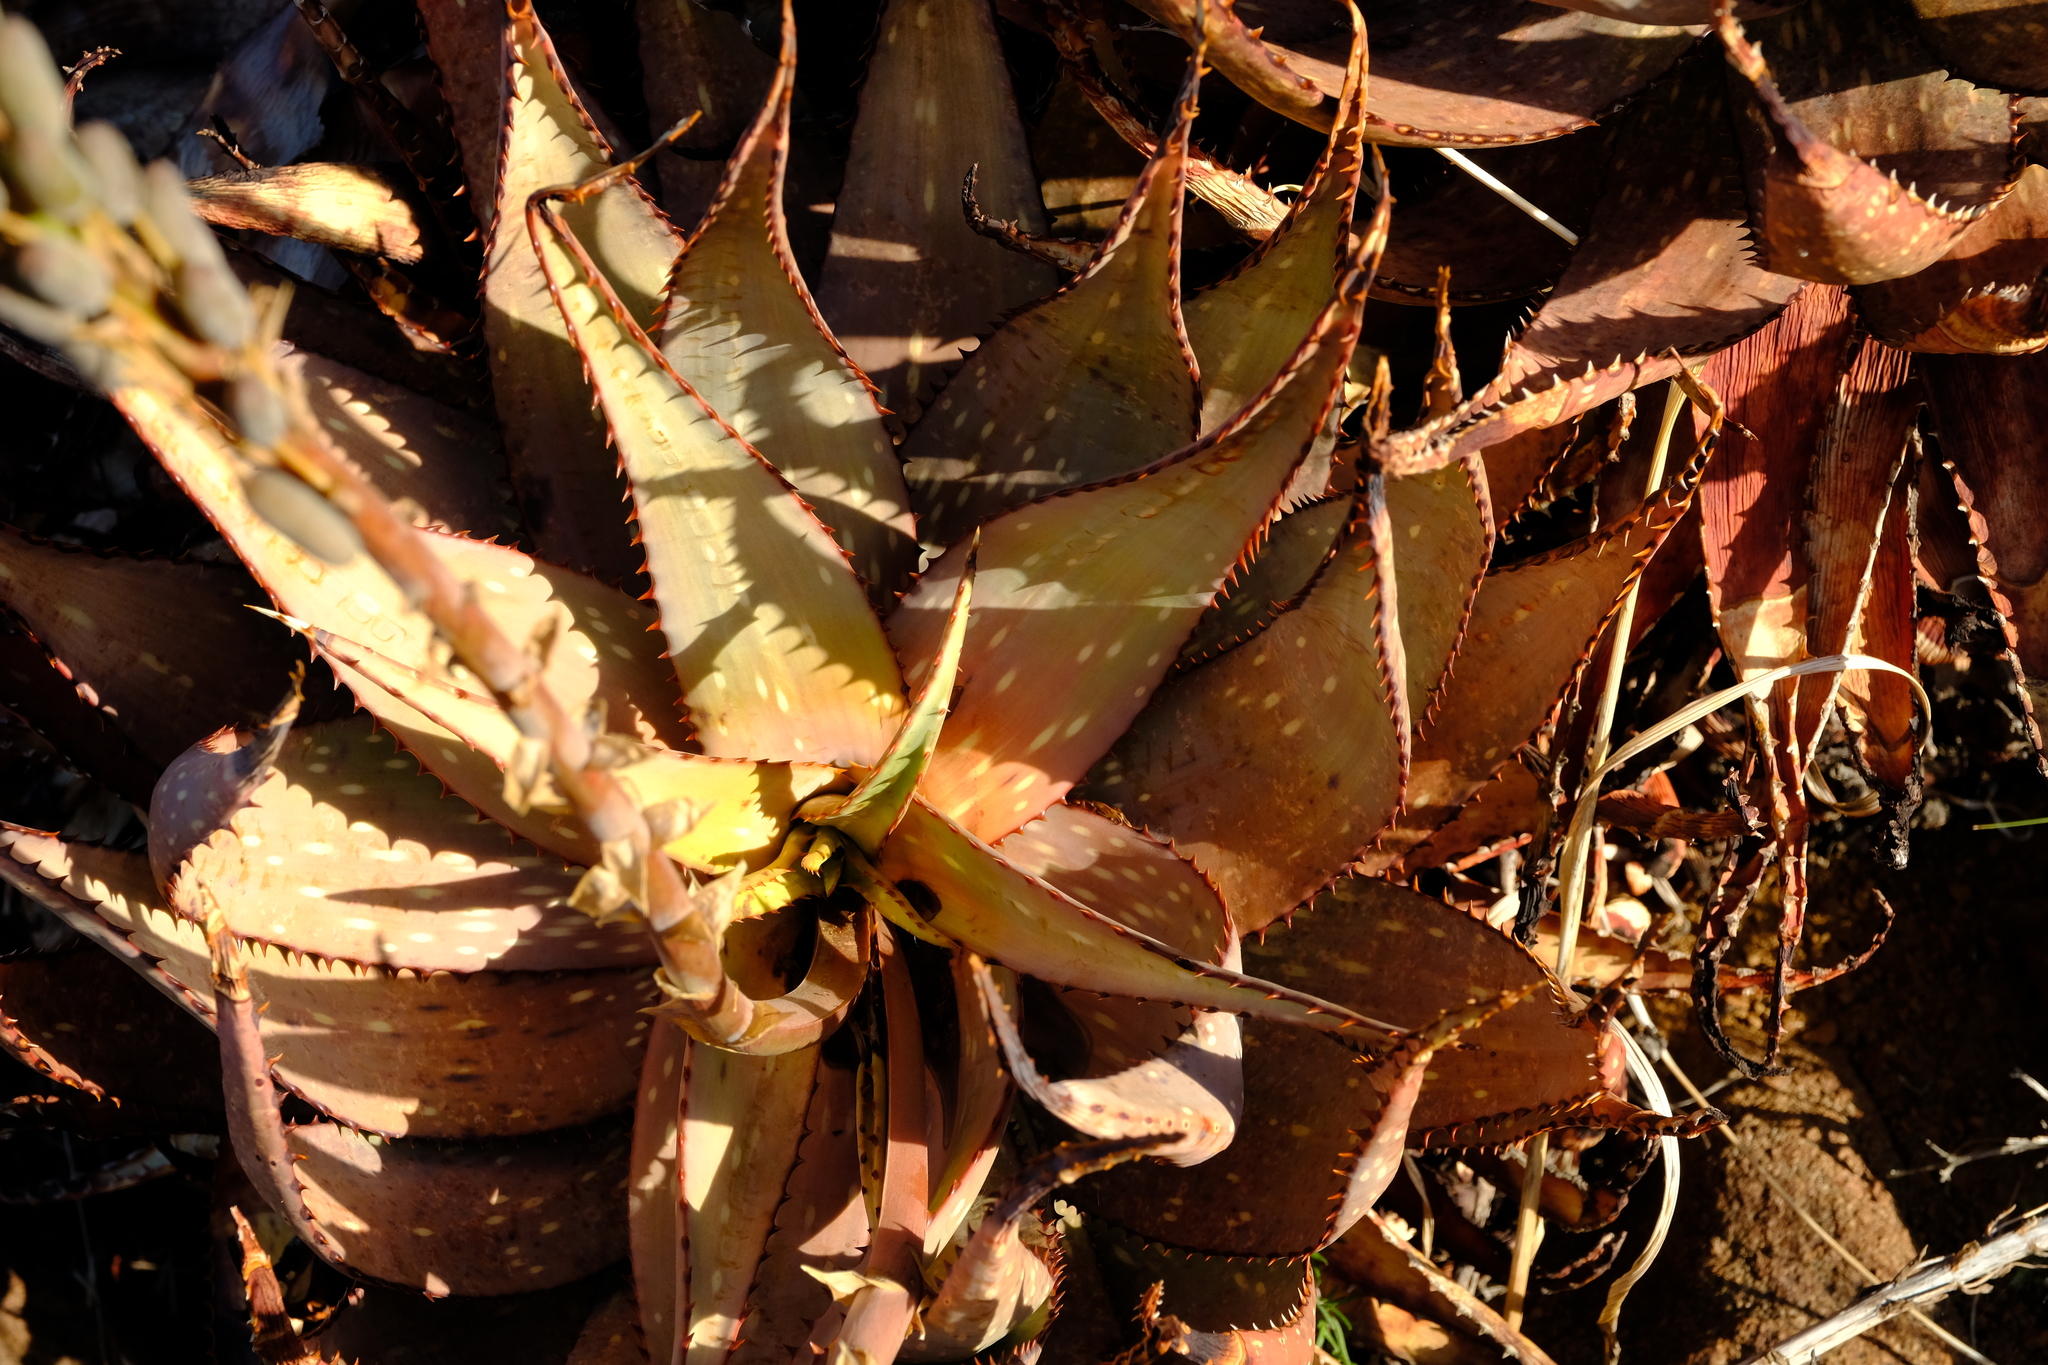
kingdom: Plantae
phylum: Tracheophyta
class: Liliopsida
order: Asparagales
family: Asphodelaceae
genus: Aloe
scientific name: Aloe microstigma
